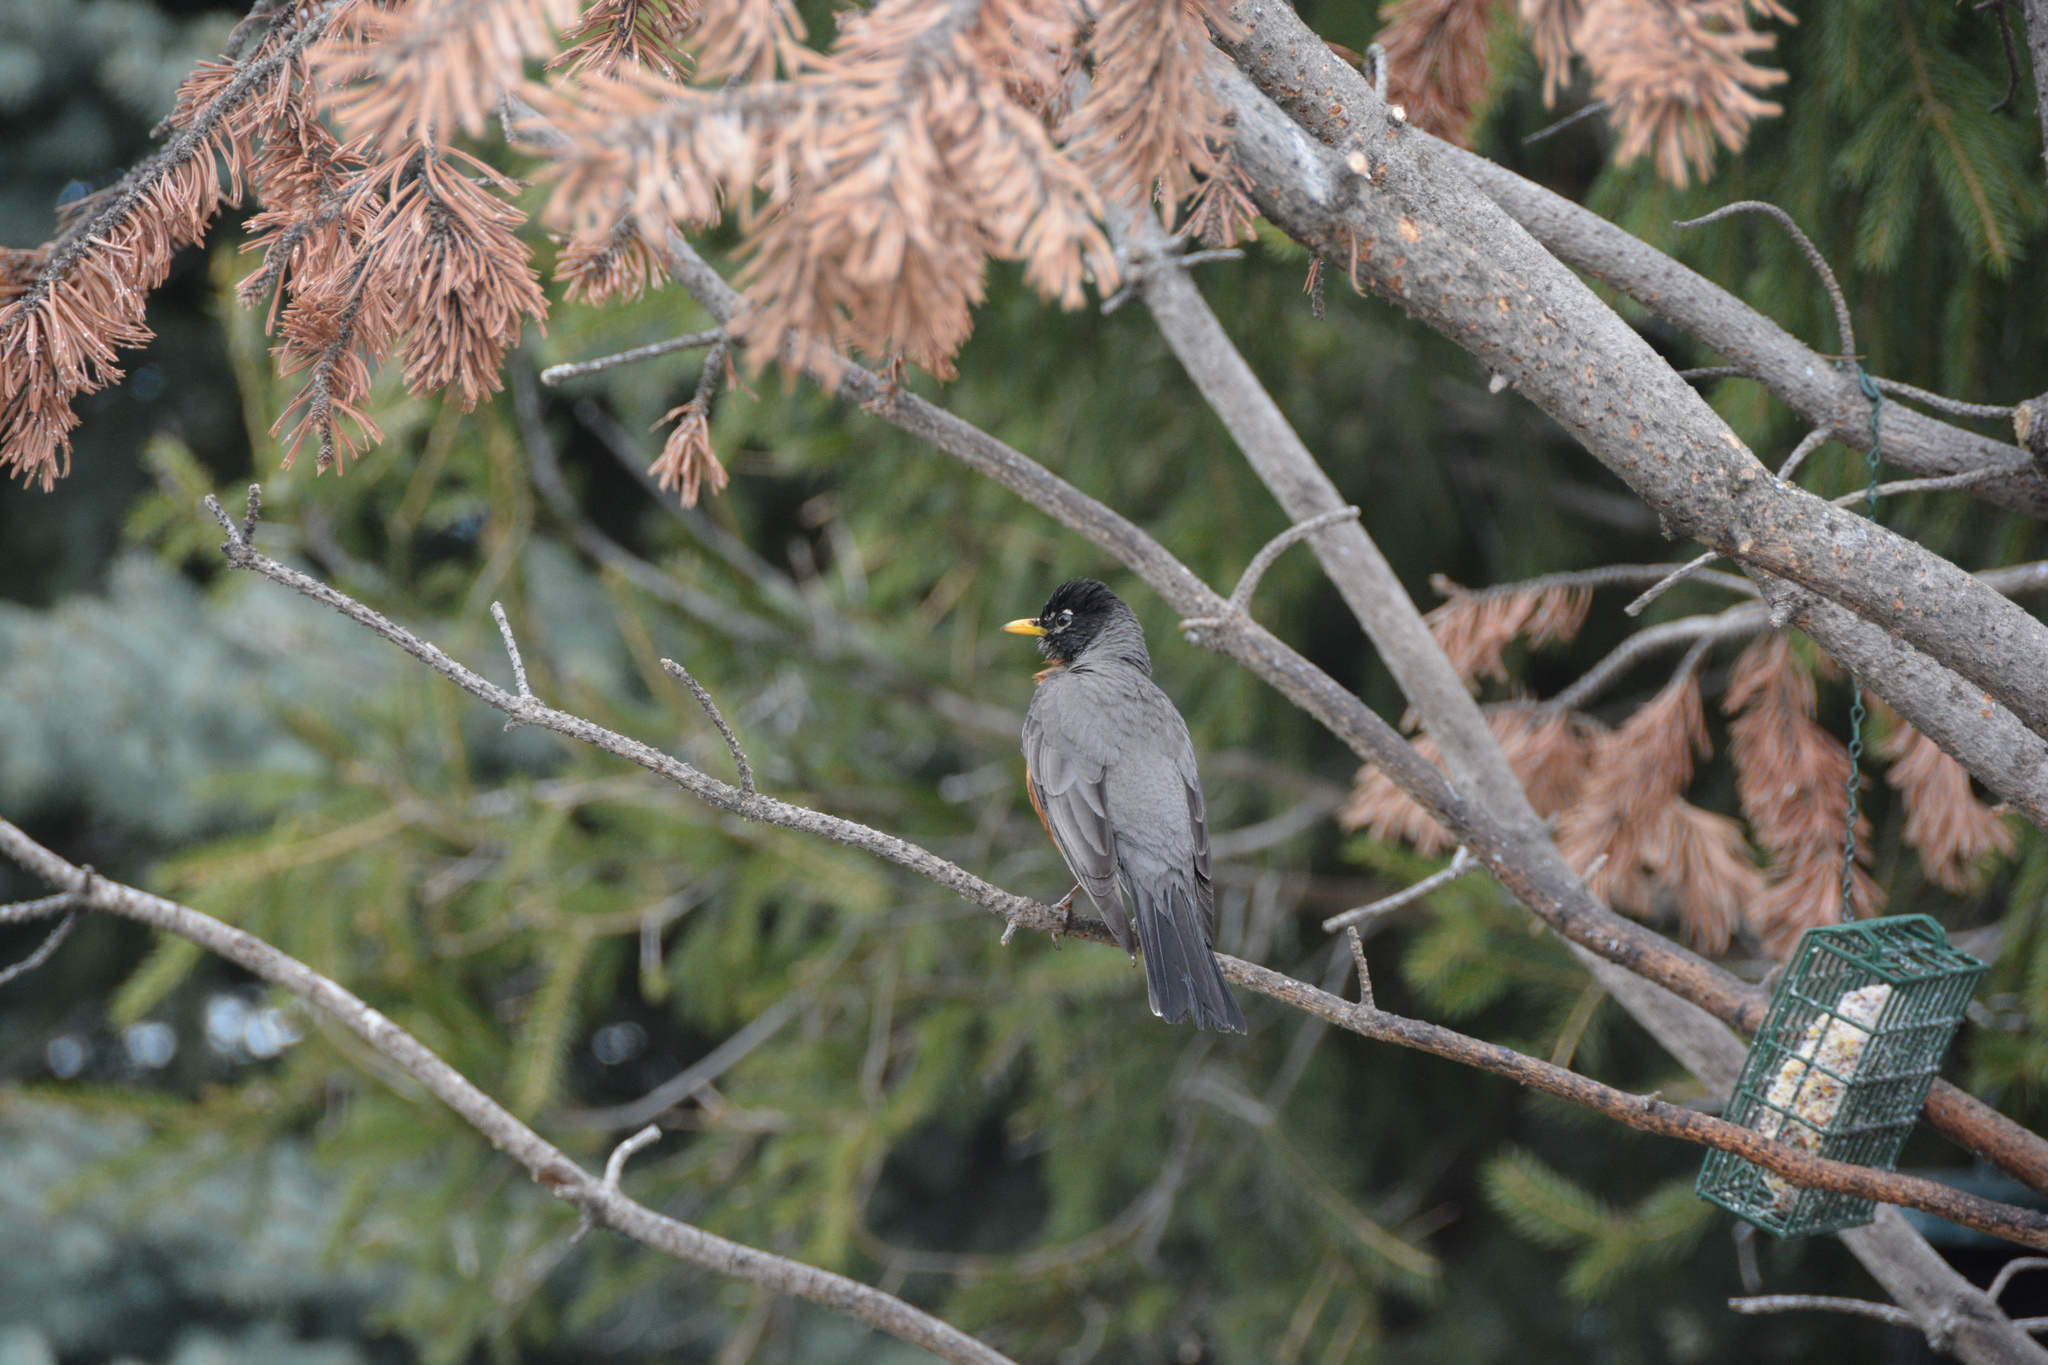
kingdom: Animalia
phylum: Chordata
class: Aves
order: Passeriformes
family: Turdidae
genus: Turdus
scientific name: Turdus migratorius
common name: American robin
